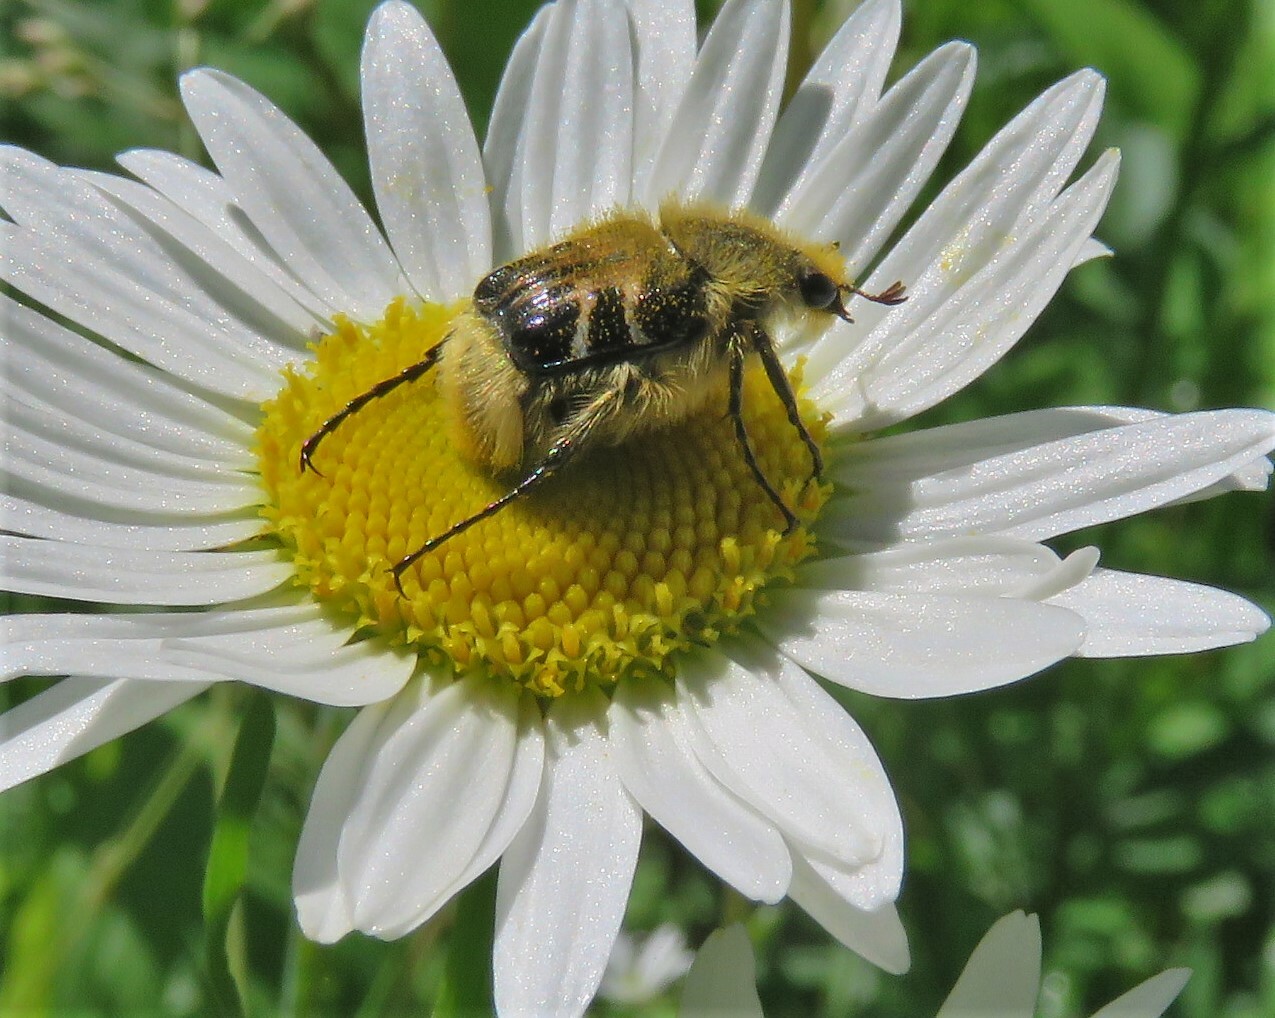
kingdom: Animalia
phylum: Arthropoda
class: Insecta
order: Coleoptera
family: Scarabaeidae
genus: Trichiotinus
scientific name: Trichiotinus assimilis
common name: Bee-mimic beetle
